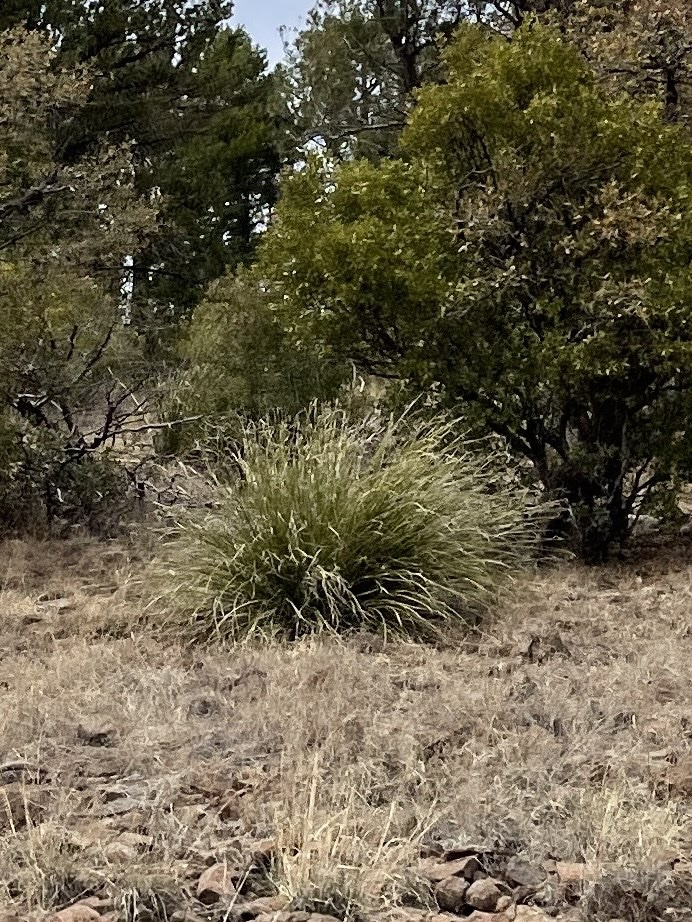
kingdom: Plantae
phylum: Tracheophyta
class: Liliopsida
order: Asparagales
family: Asparagaceae
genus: Nolina
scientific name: Nolina microcarpa
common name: Bear-grass
